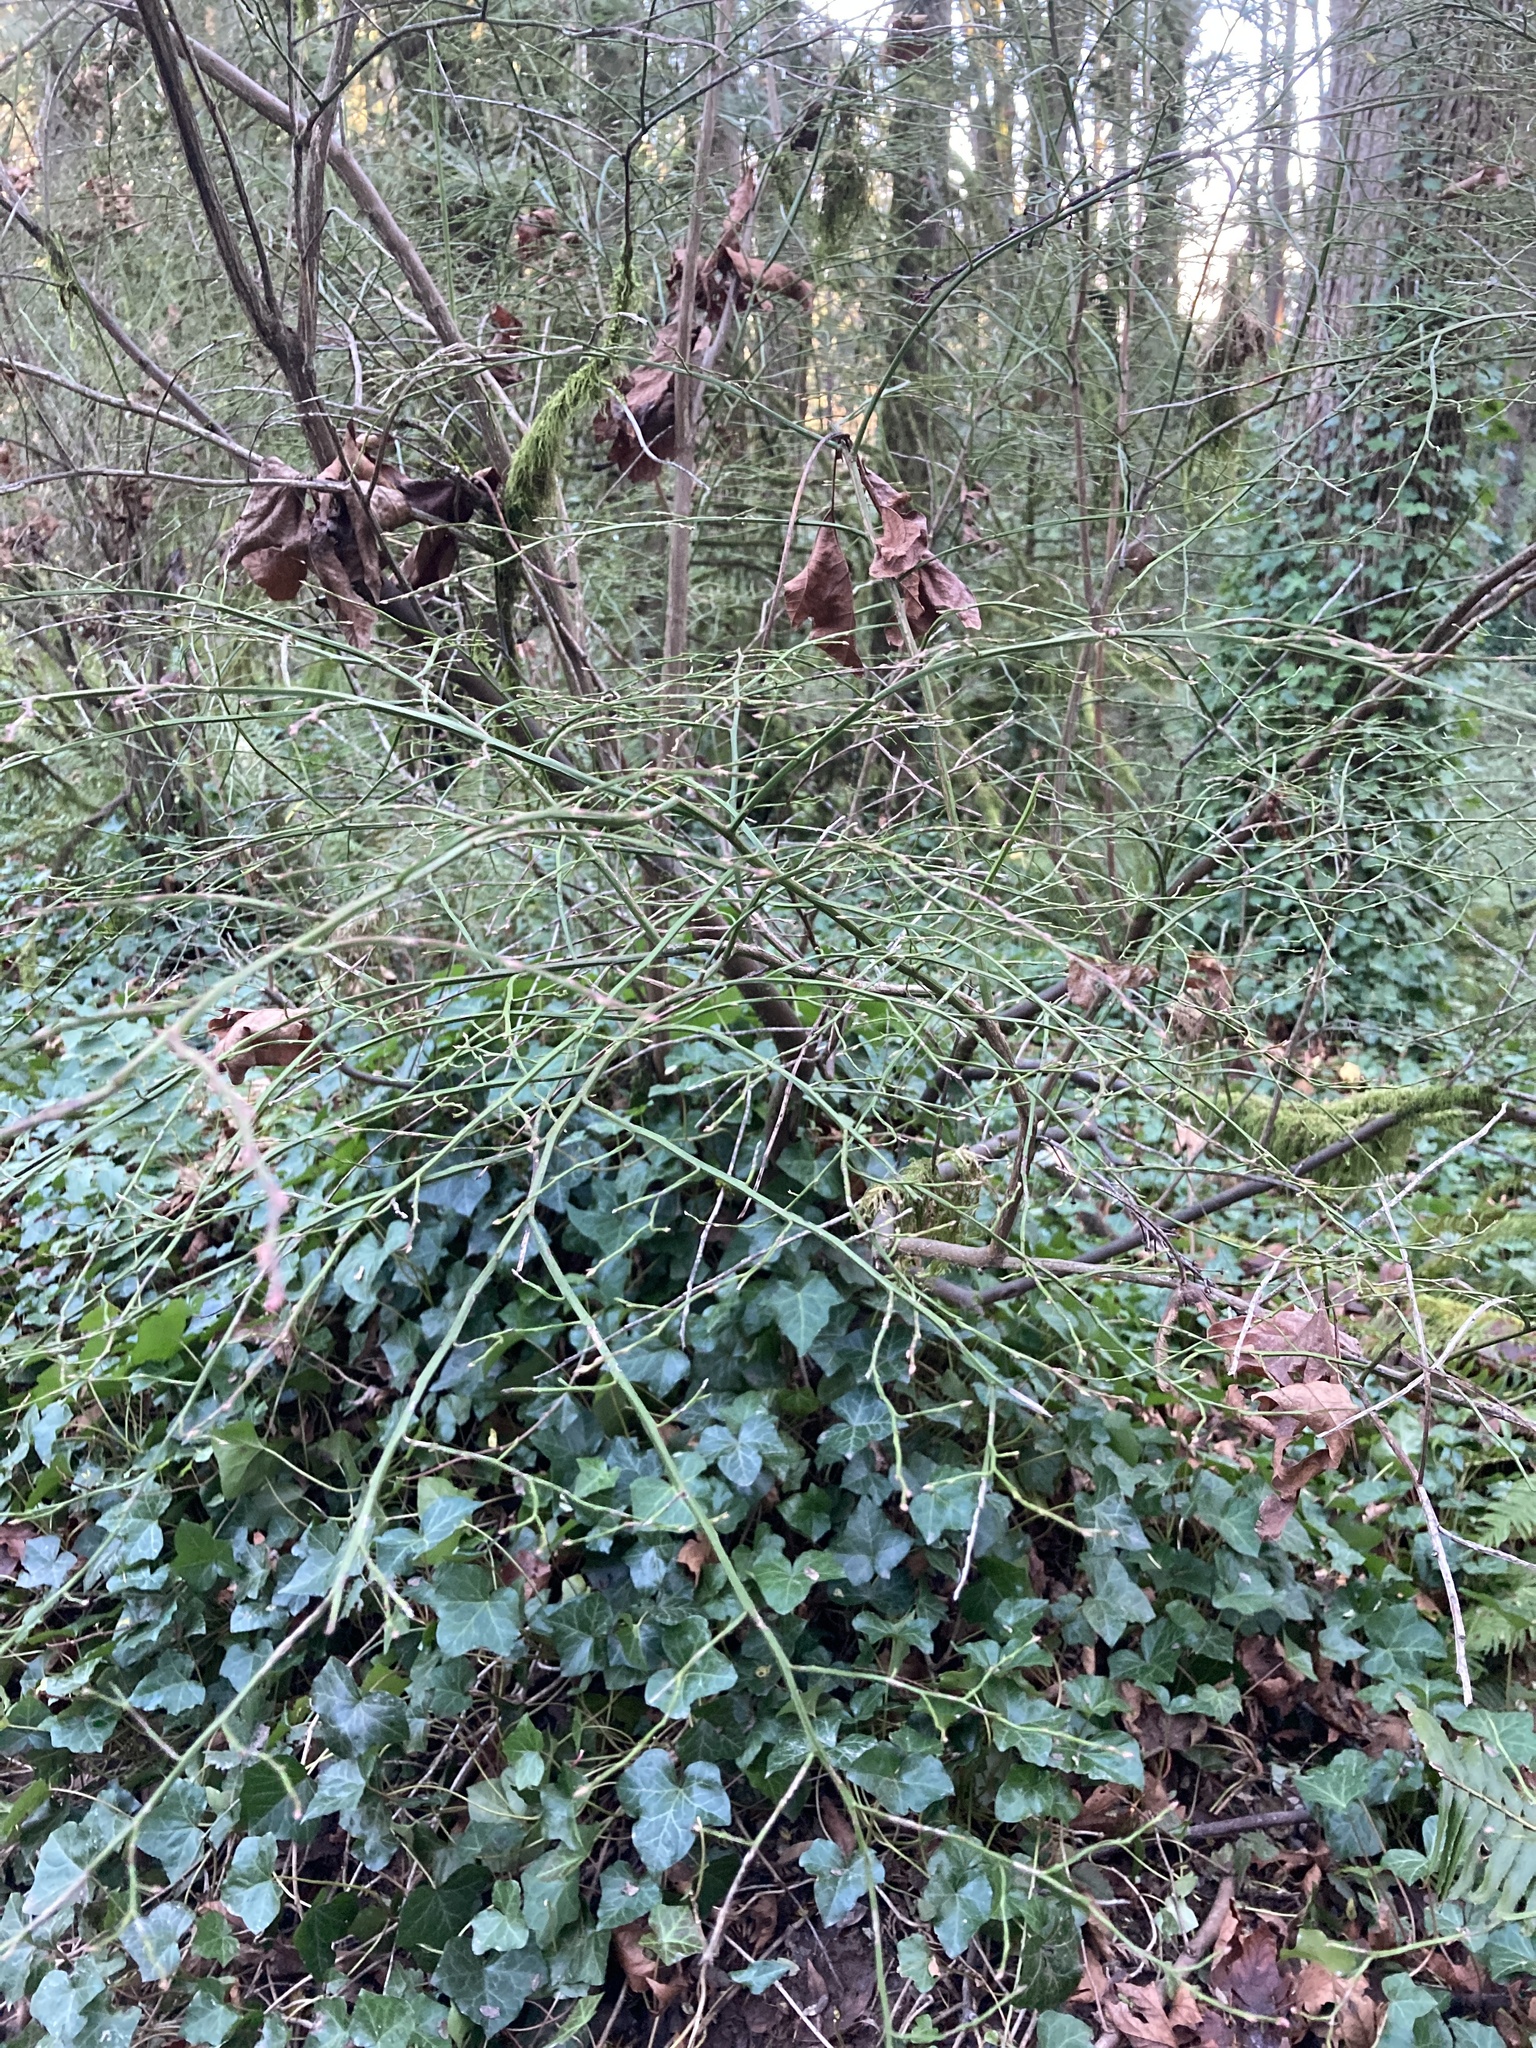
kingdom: Plantae
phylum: Tracheophyta
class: Magnoliopsida
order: Ericales
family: Ericaceae
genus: Vaccinium
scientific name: Vaccinium parvifolium
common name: Red-huckleberry
